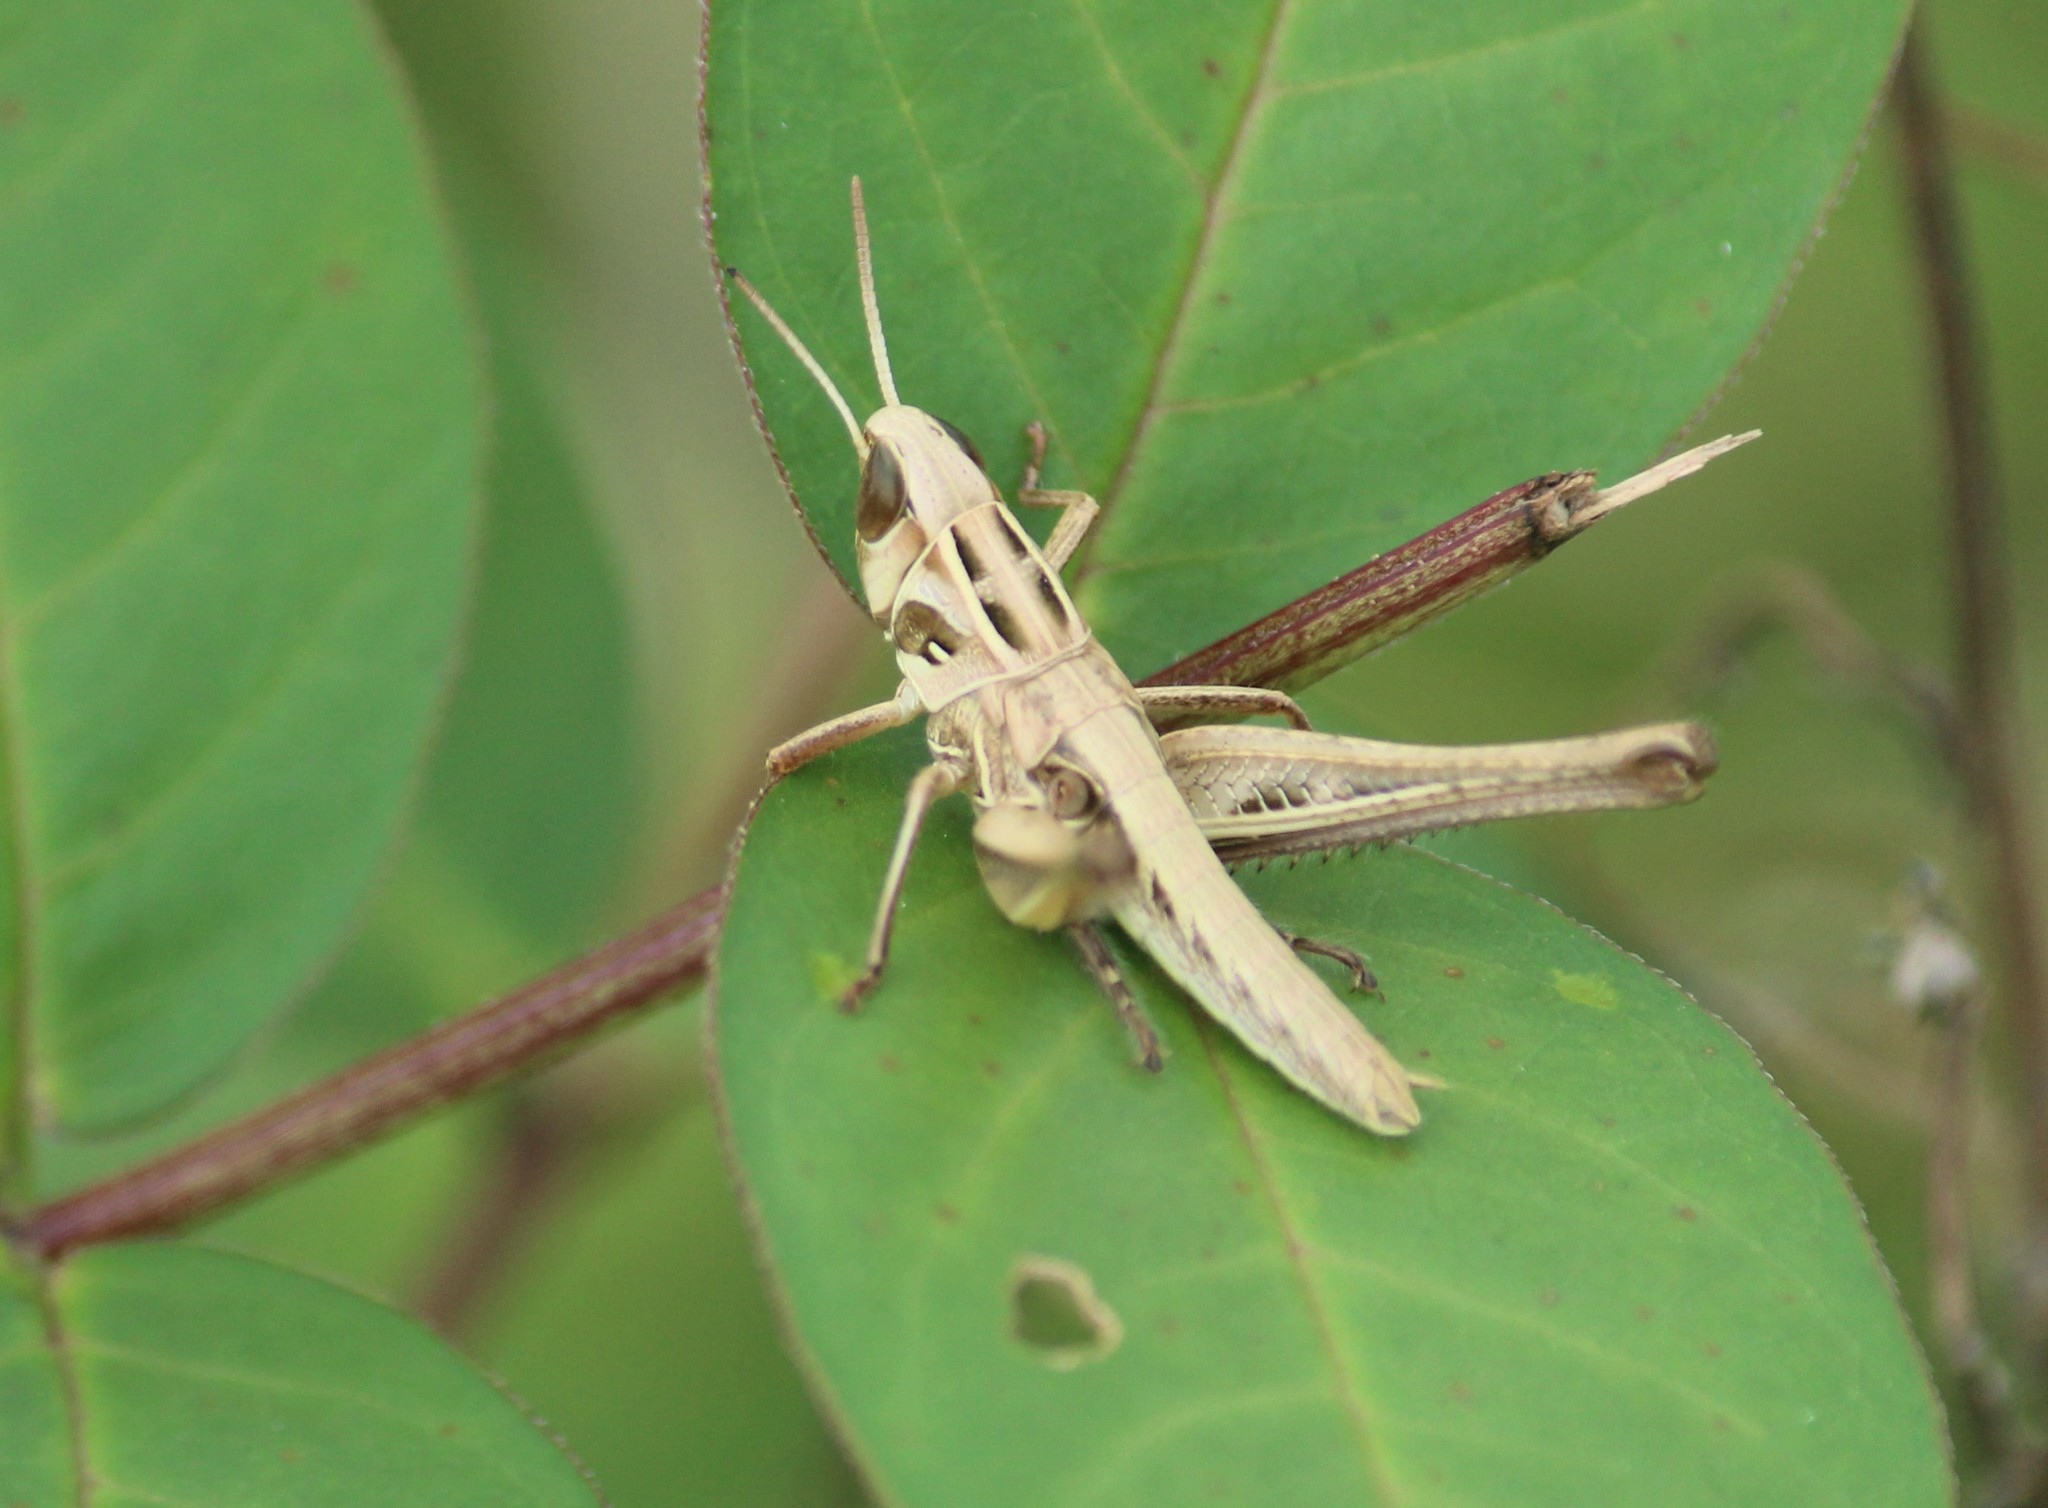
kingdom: Animalia
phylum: Arthropoda
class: Insecta
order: Orthoptera
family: Acrididae
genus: Tylotropidius
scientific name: Tylotropidius varicornis
